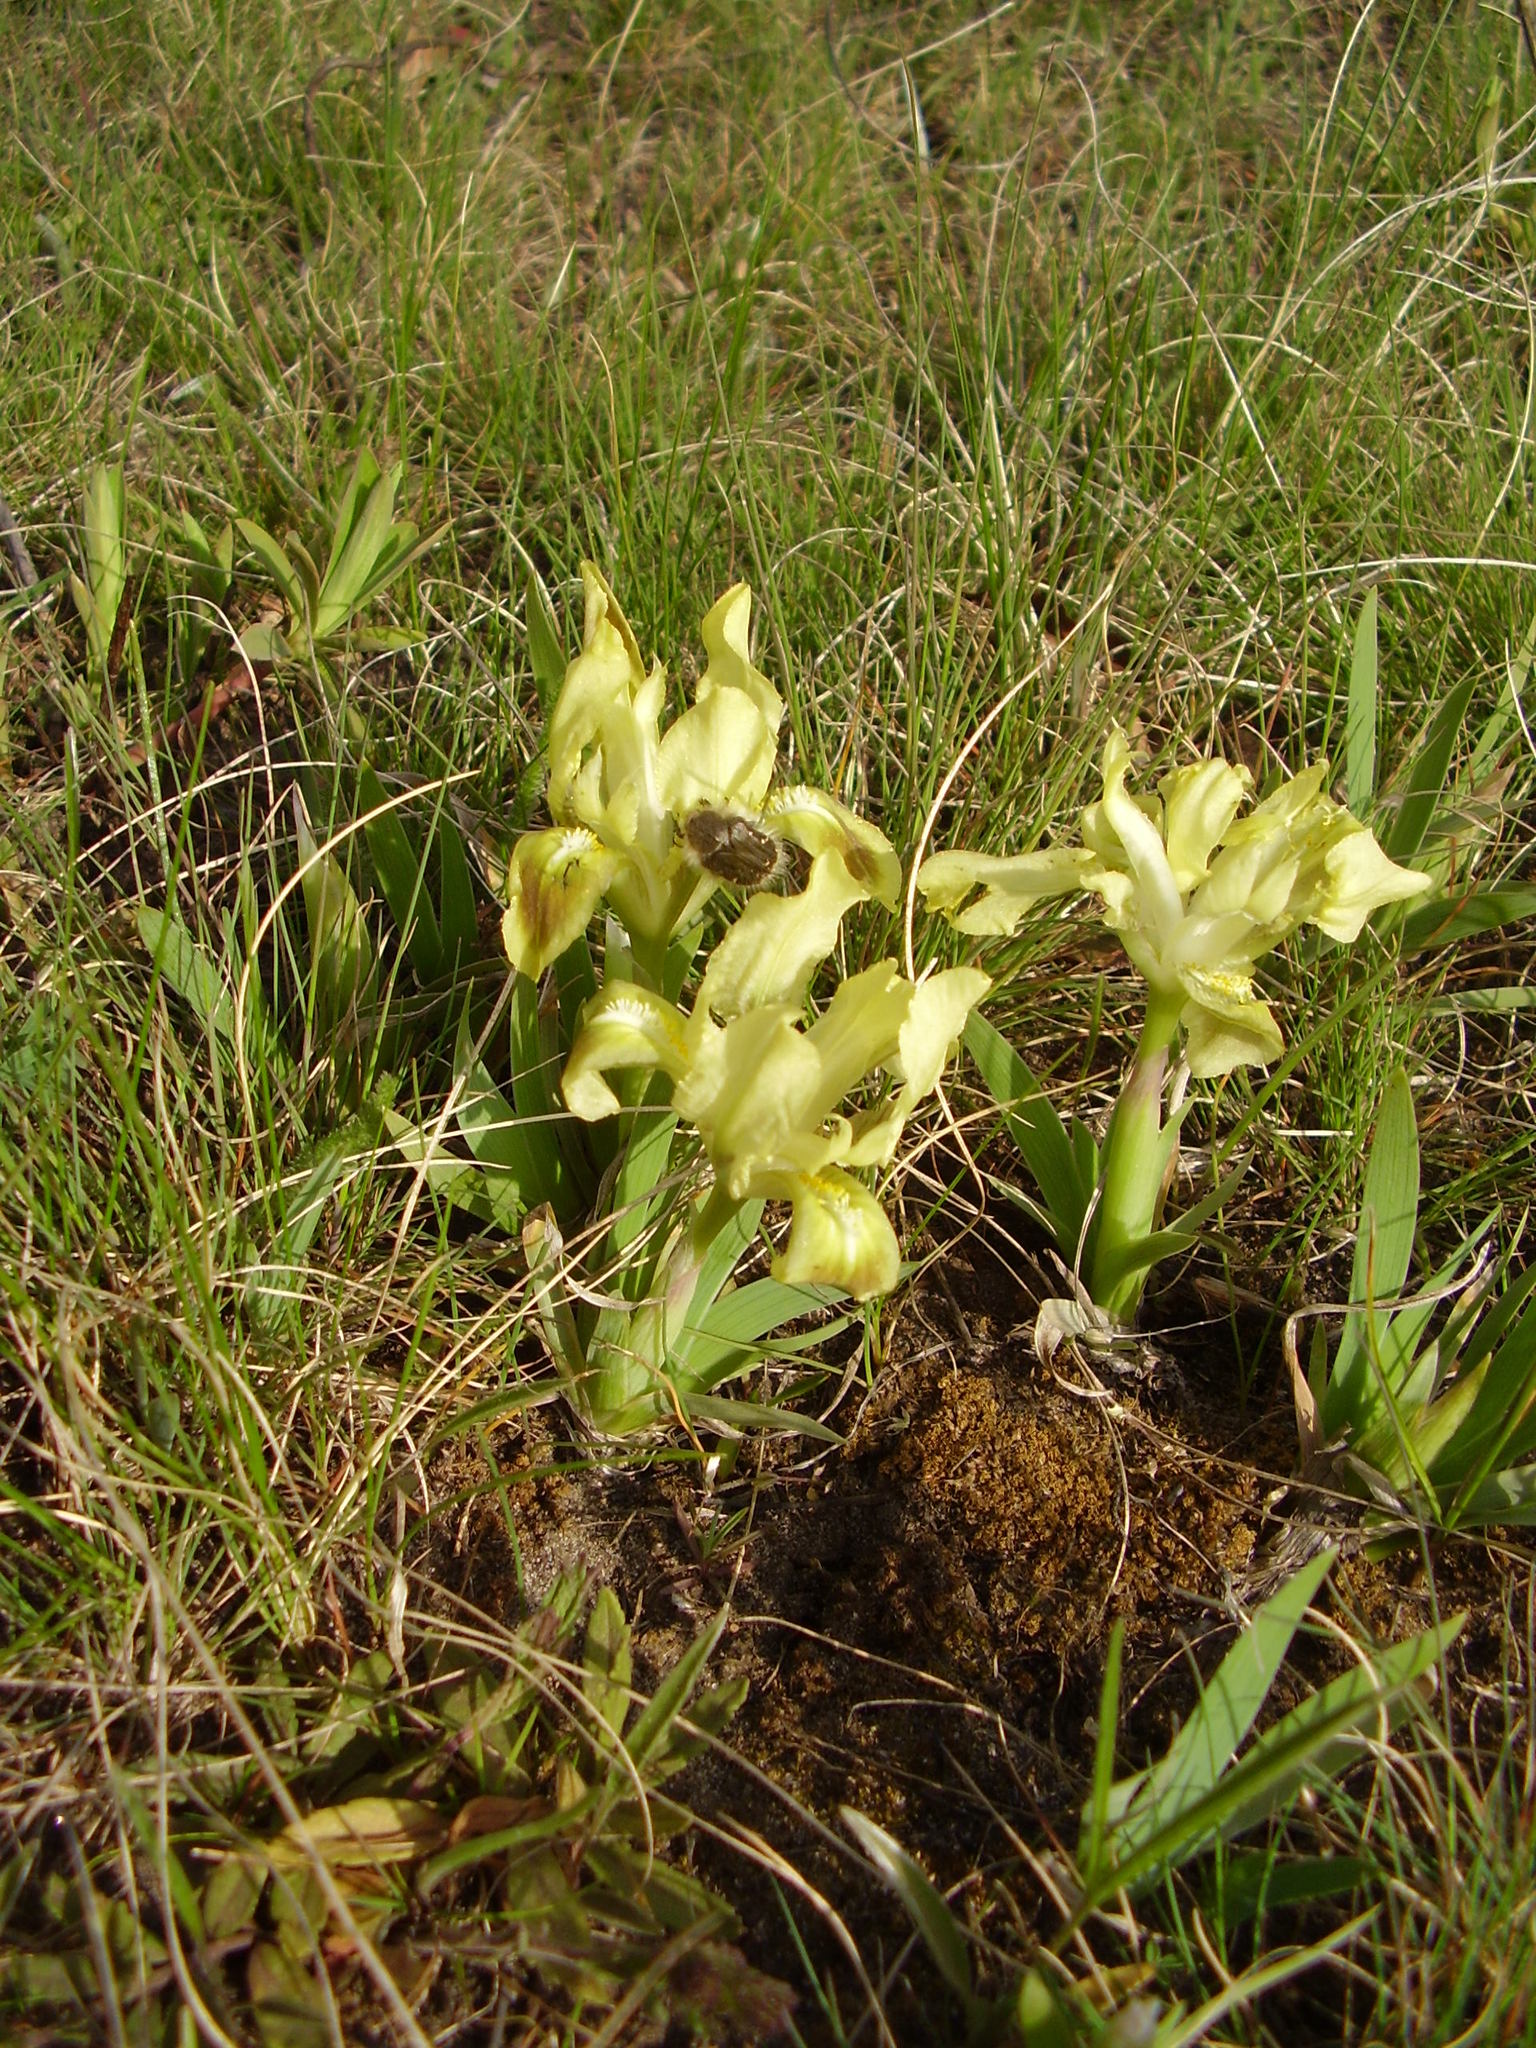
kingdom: Plantae
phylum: Tracheophyta
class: Liliopsida
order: Asparagales
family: Iridaceae
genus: Iris
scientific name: Iris pumila
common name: Dwarf iris
